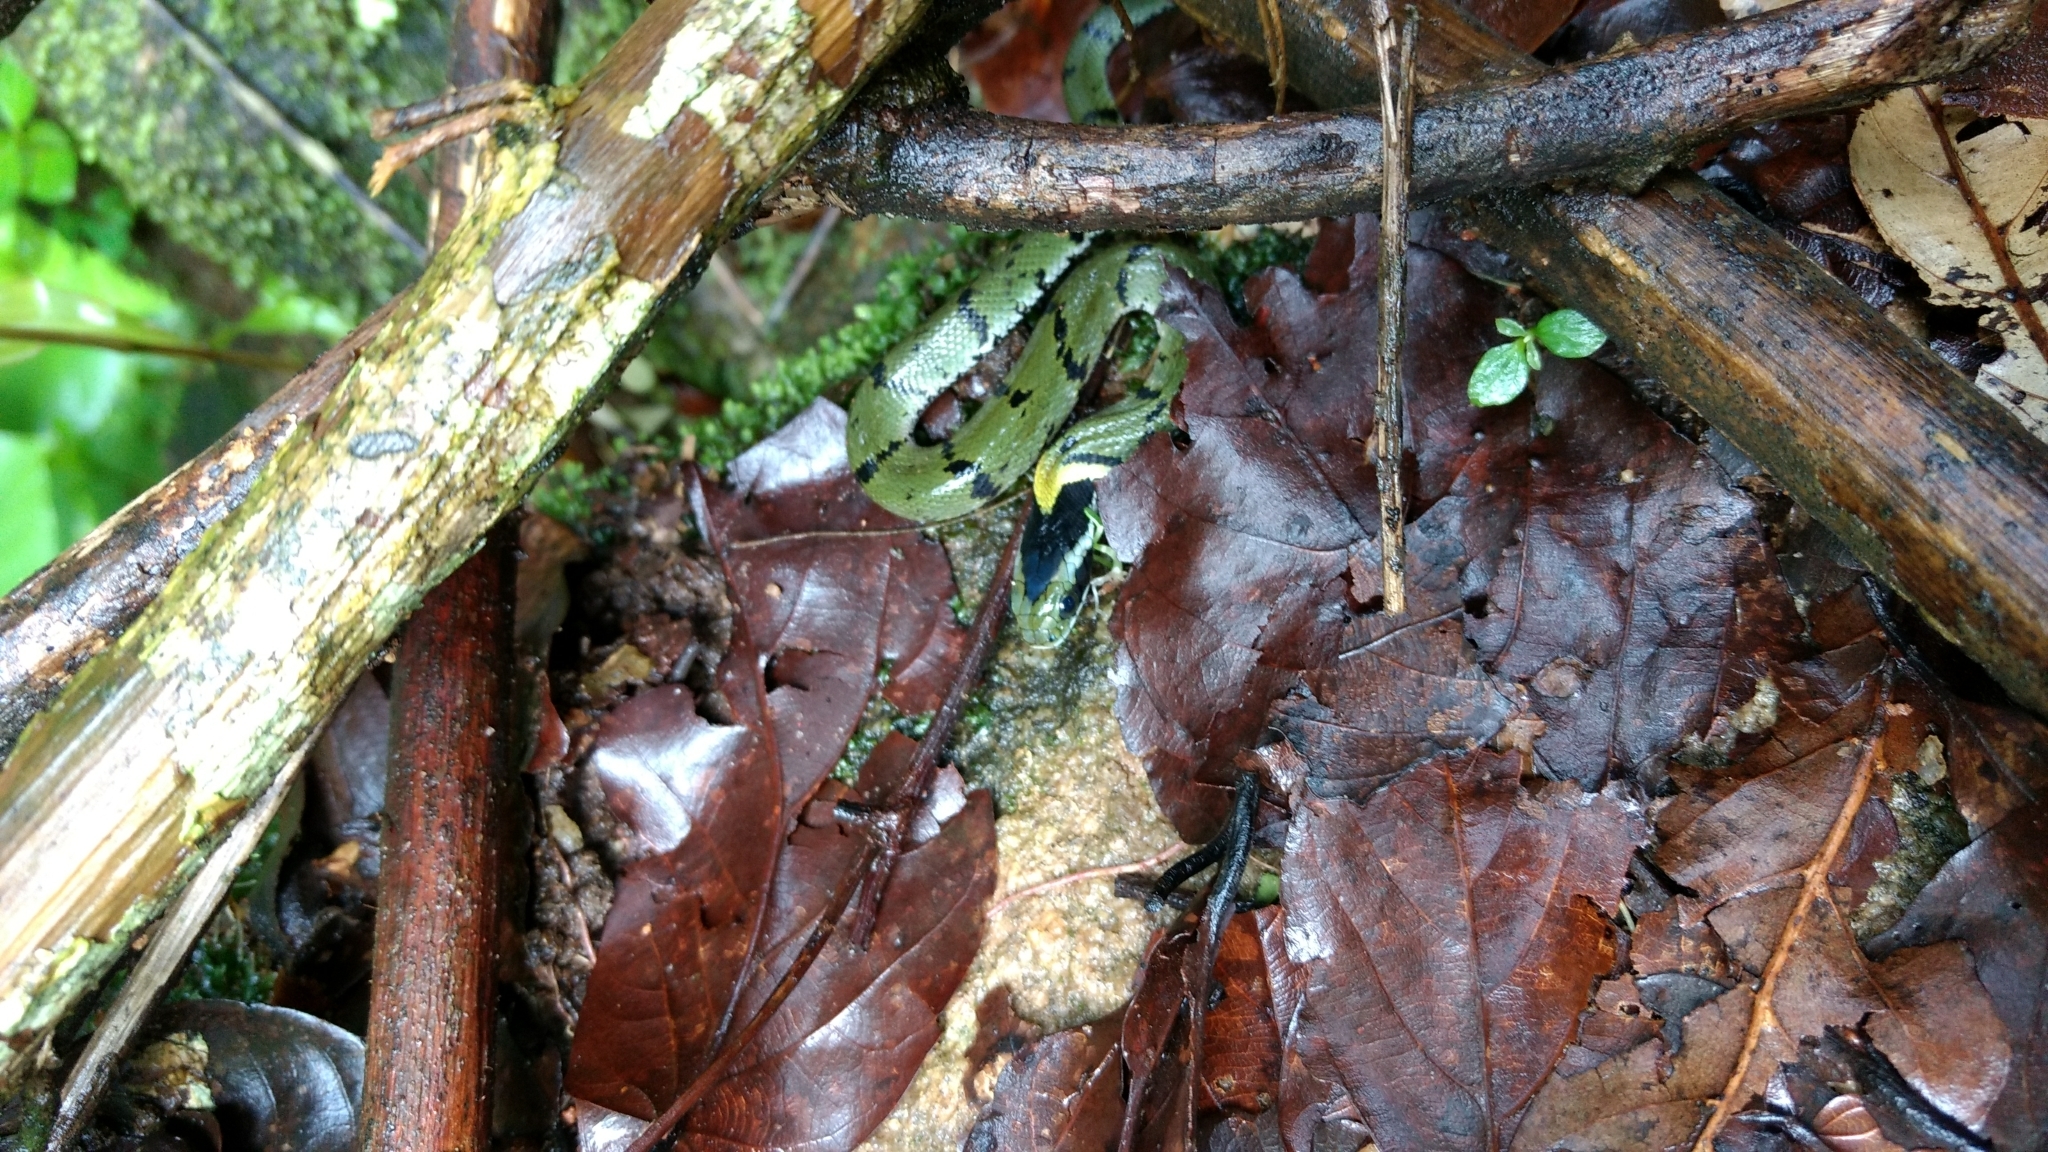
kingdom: Animalia
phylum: Chordata
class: Squamata
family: Colubridae
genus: Rhabdophis
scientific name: Rhabdophis plumbicolor
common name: Green keelback
